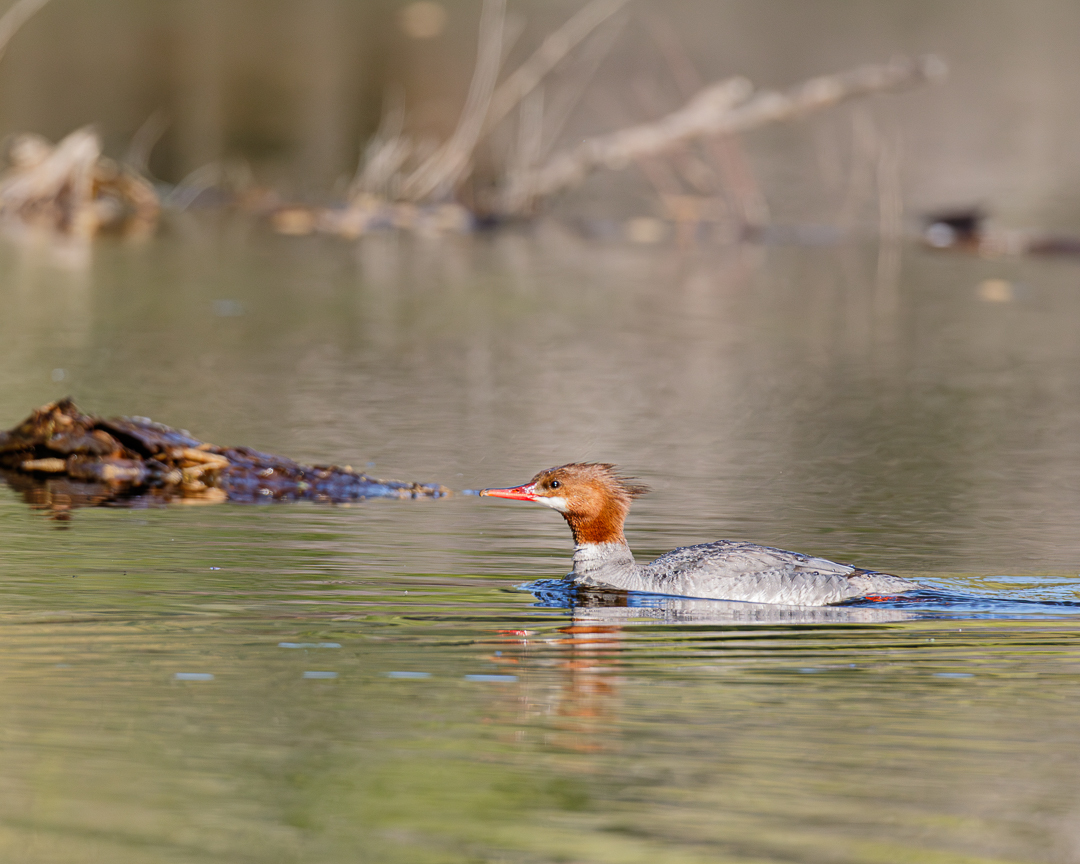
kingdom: Animalia
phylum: Chordata
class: Aves
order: Anseriformes
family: Anatidae
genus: Mergus
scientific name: Mergus merganser
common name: Common merganser
